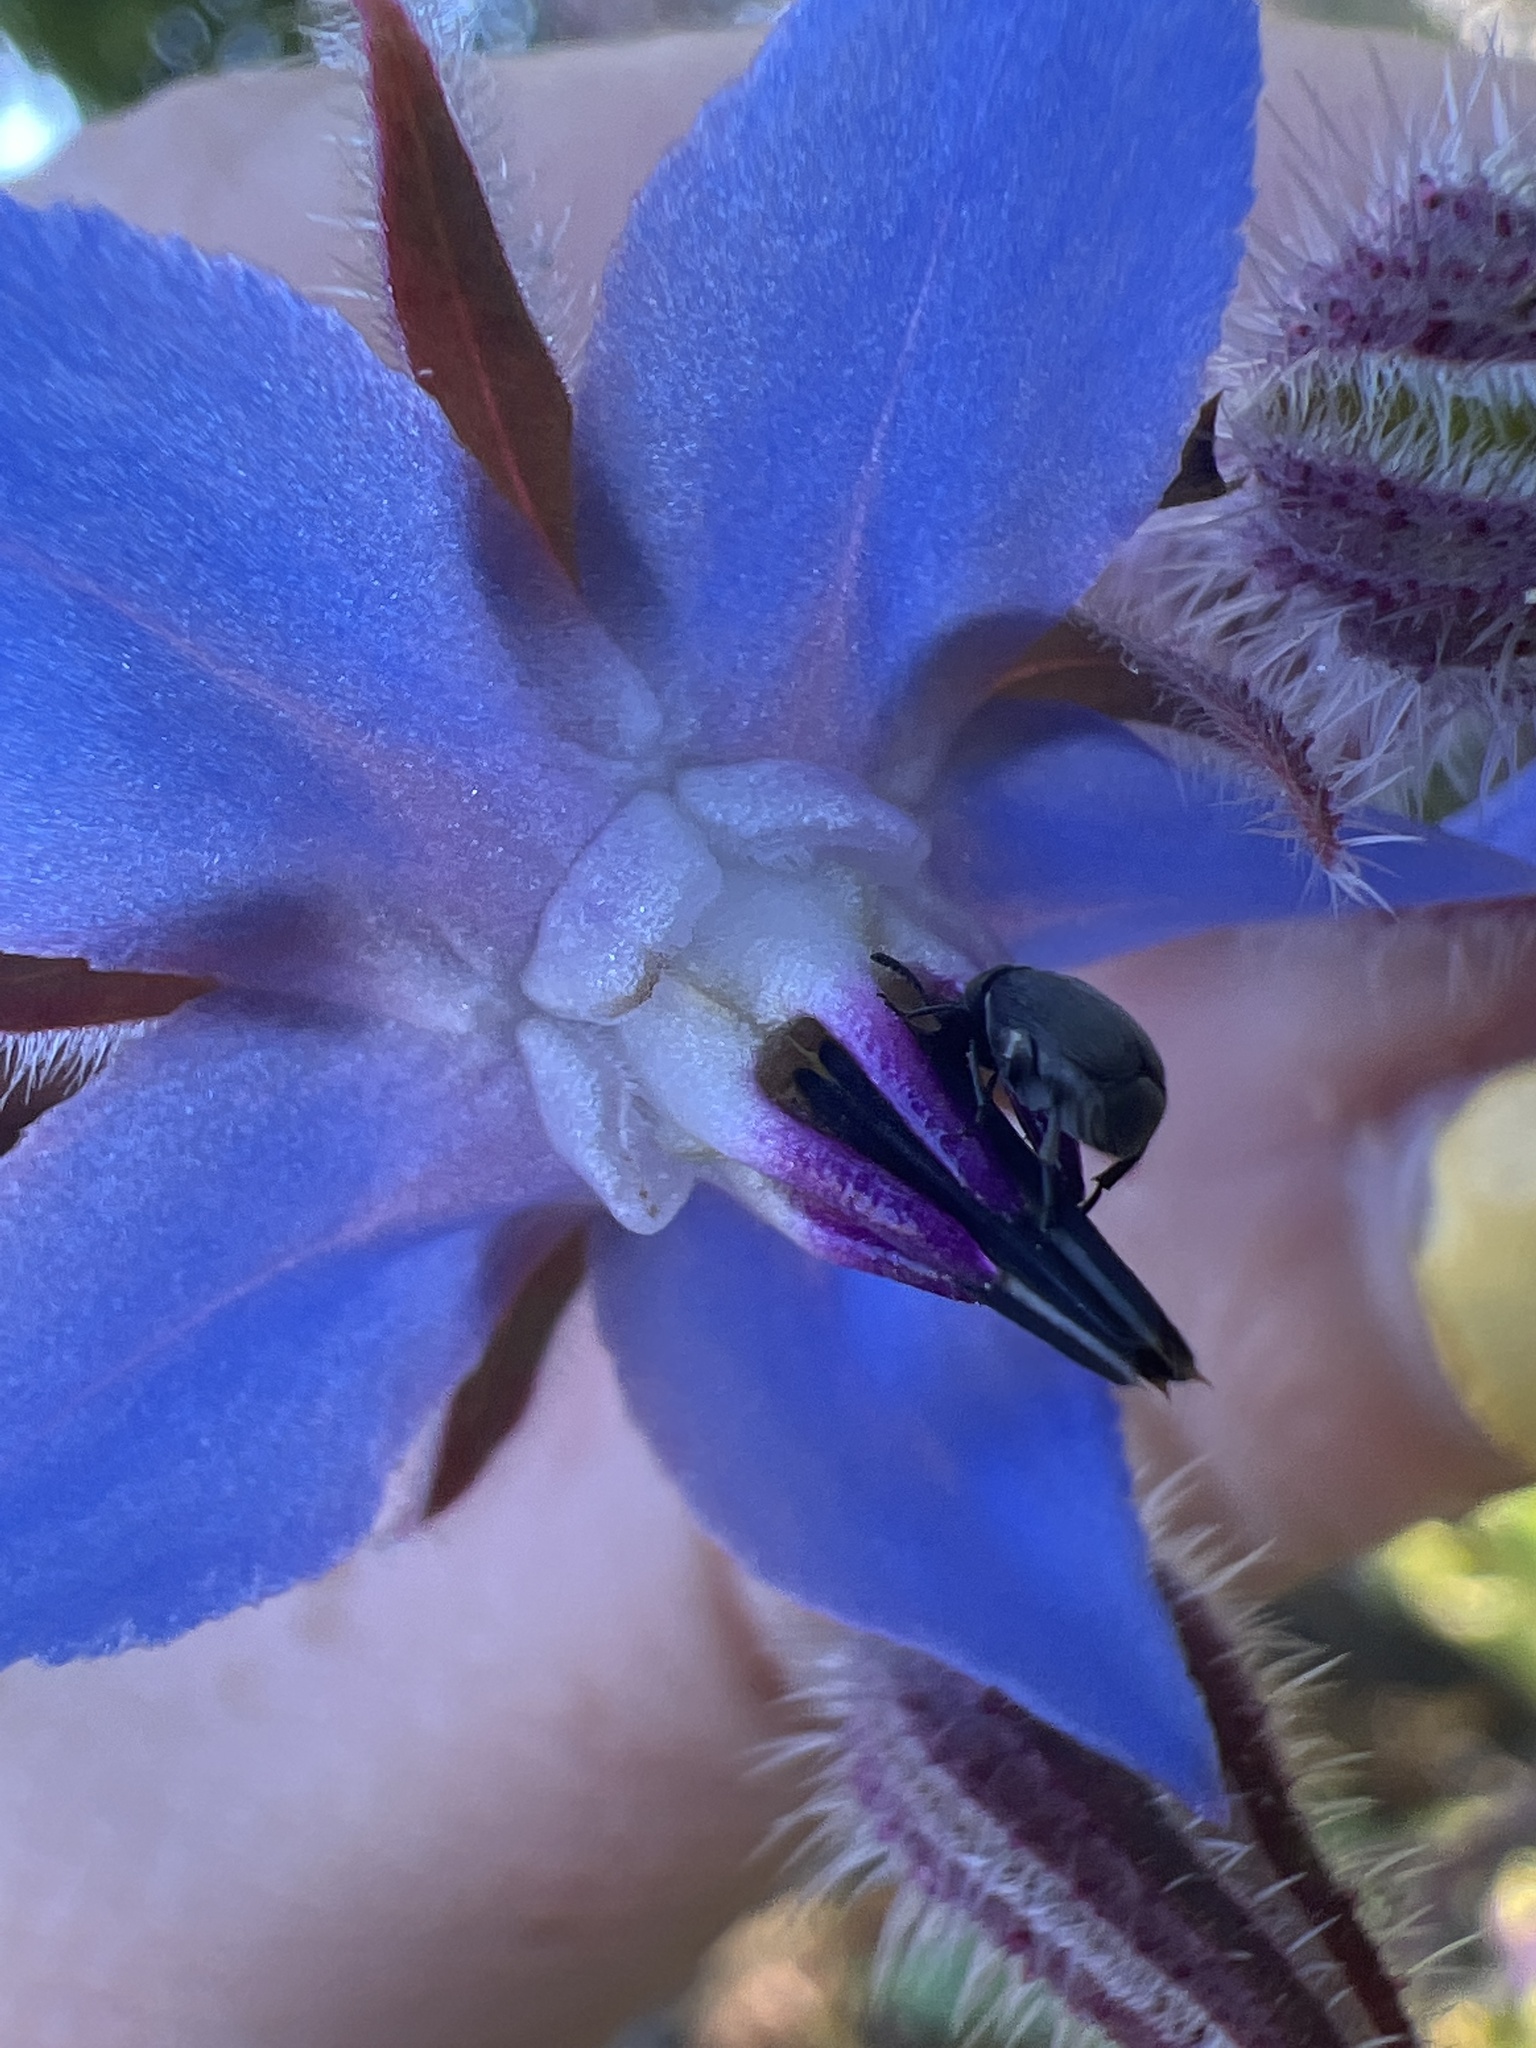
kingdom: Animalia
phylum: Arthropoda
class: Insecta
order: Coleoptera
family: Chrysomelidae
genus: Bruchidius
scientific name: Bruchidius villosus
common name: Scotch broom bruchid
